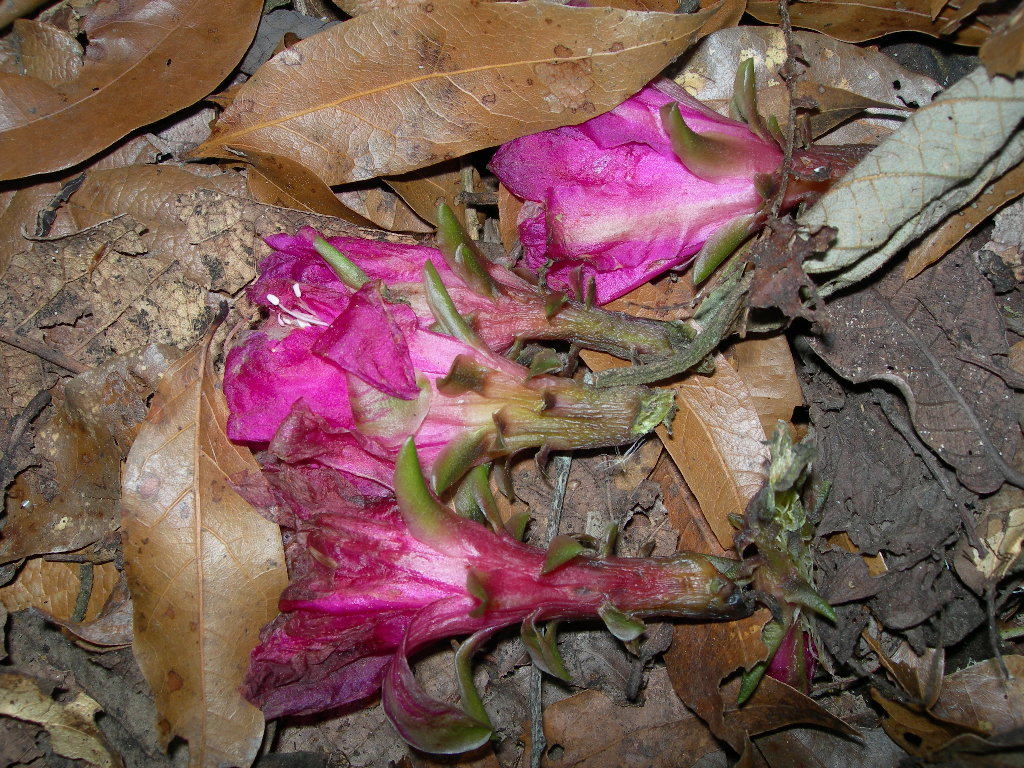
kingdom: Plantae
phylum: Tracheophyta
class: Magnoliopsida
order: Caryophyllales
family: Cactaceae
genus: Disocactus
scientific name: Disocactus macdougallii
